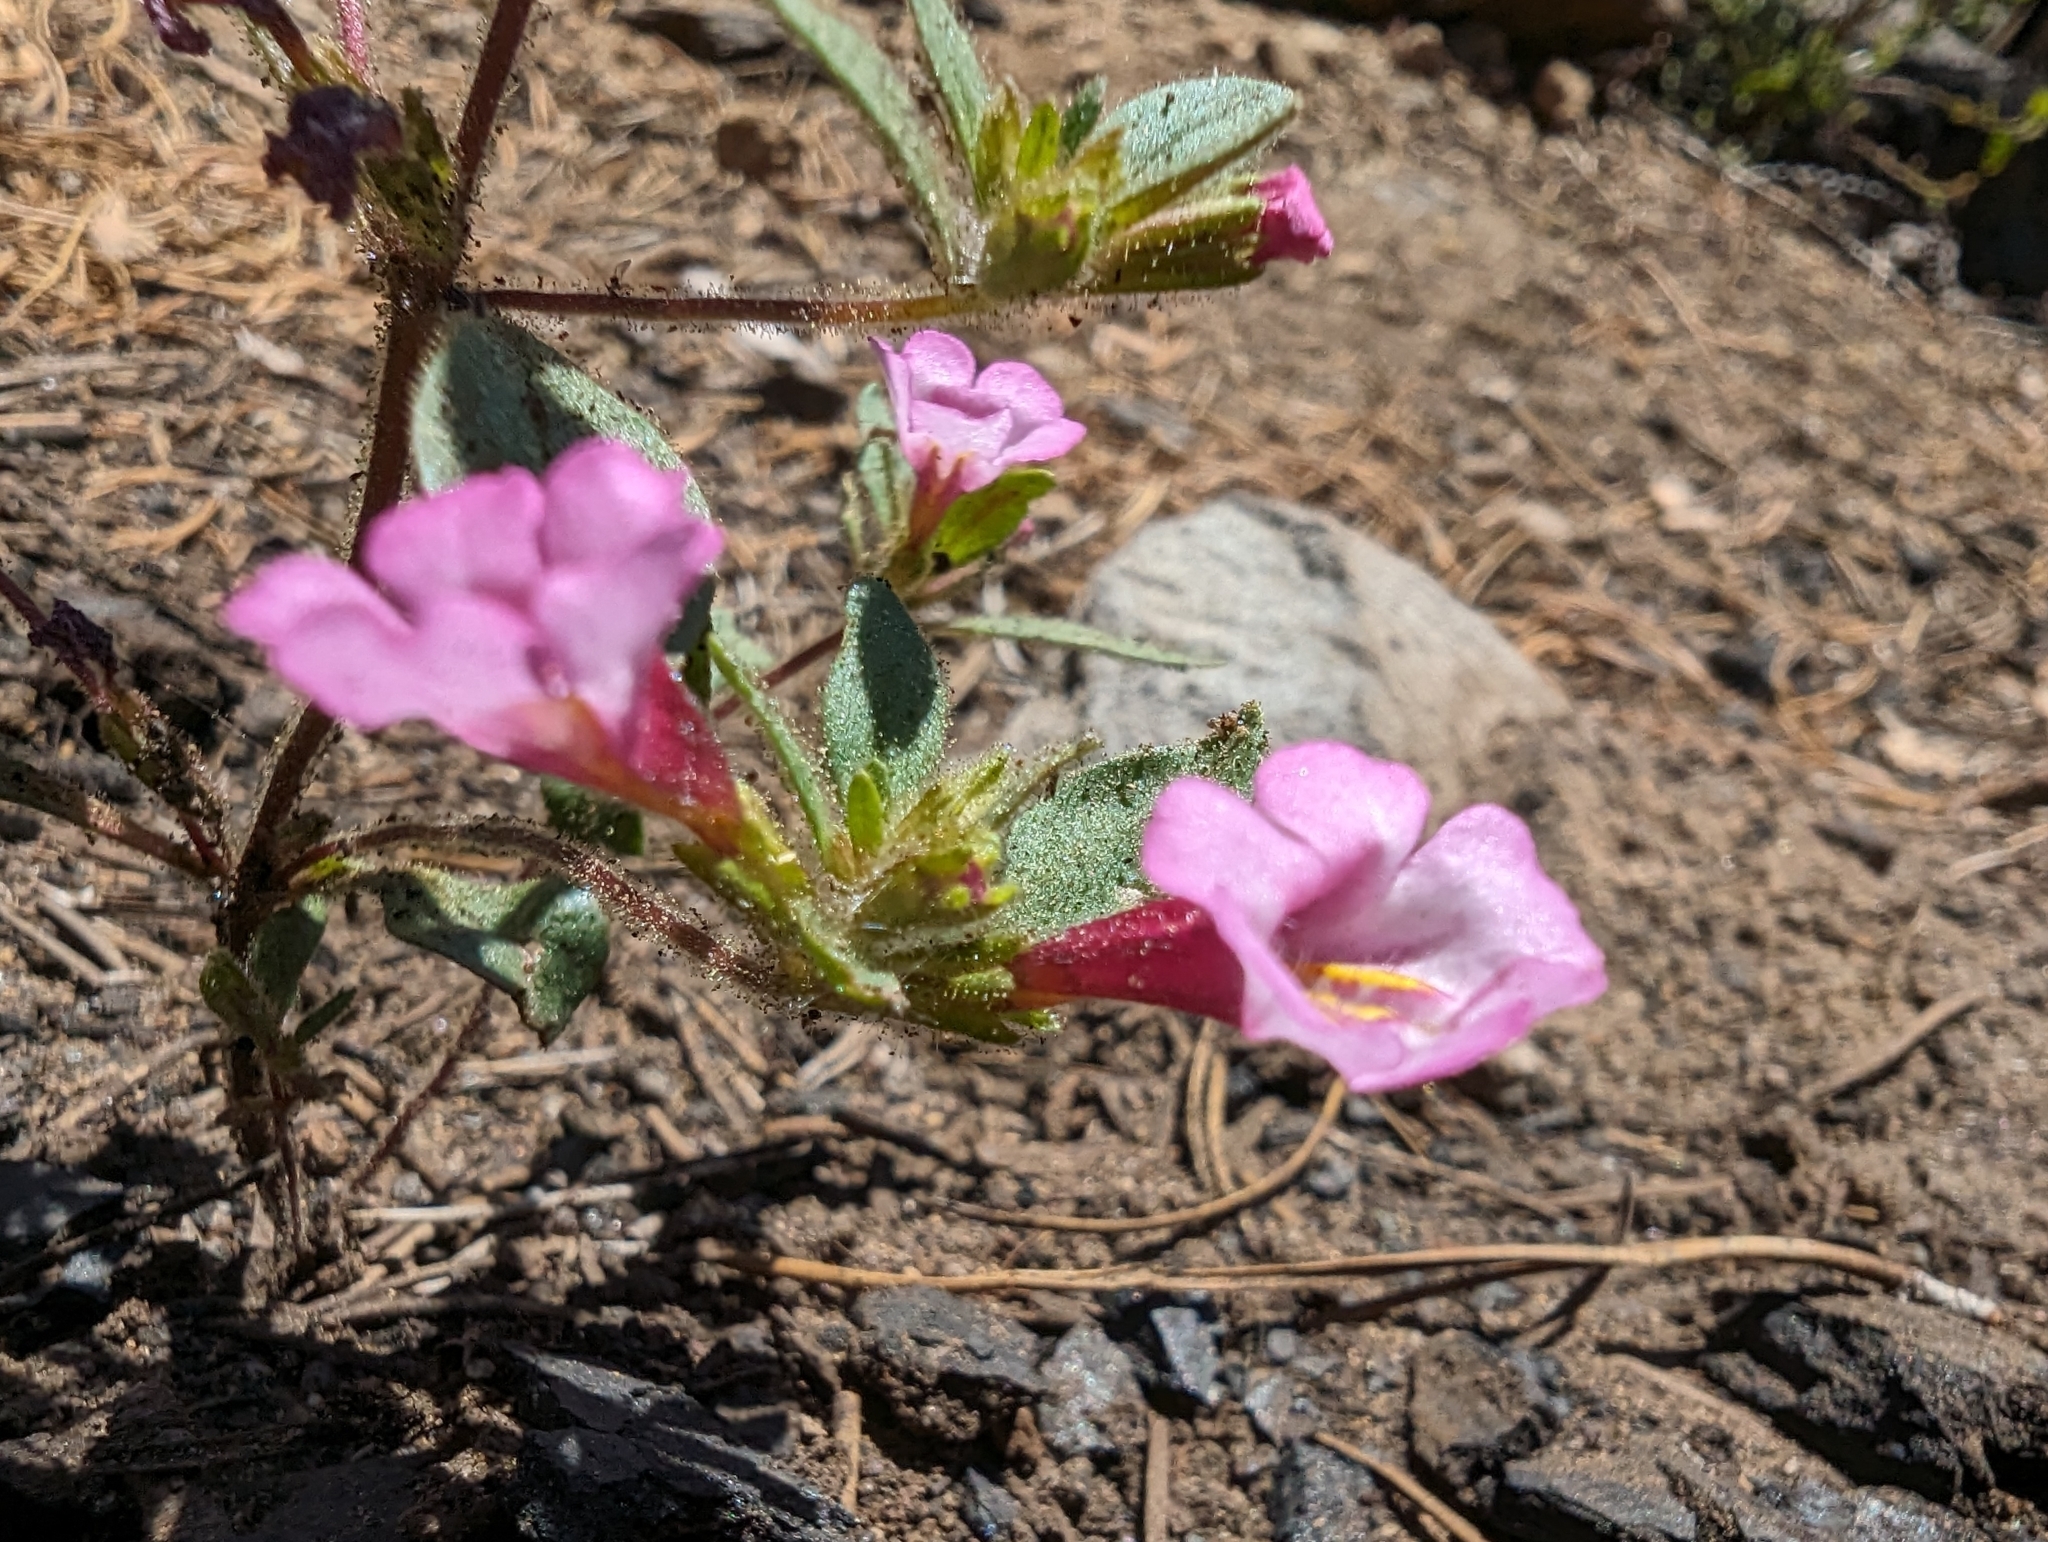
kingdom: Plantae
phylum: Tracheophyta
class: Magnoliopsida
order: Lamiales
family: Phrymaceae
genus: Diplacus
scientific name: Diplacus torreyi
